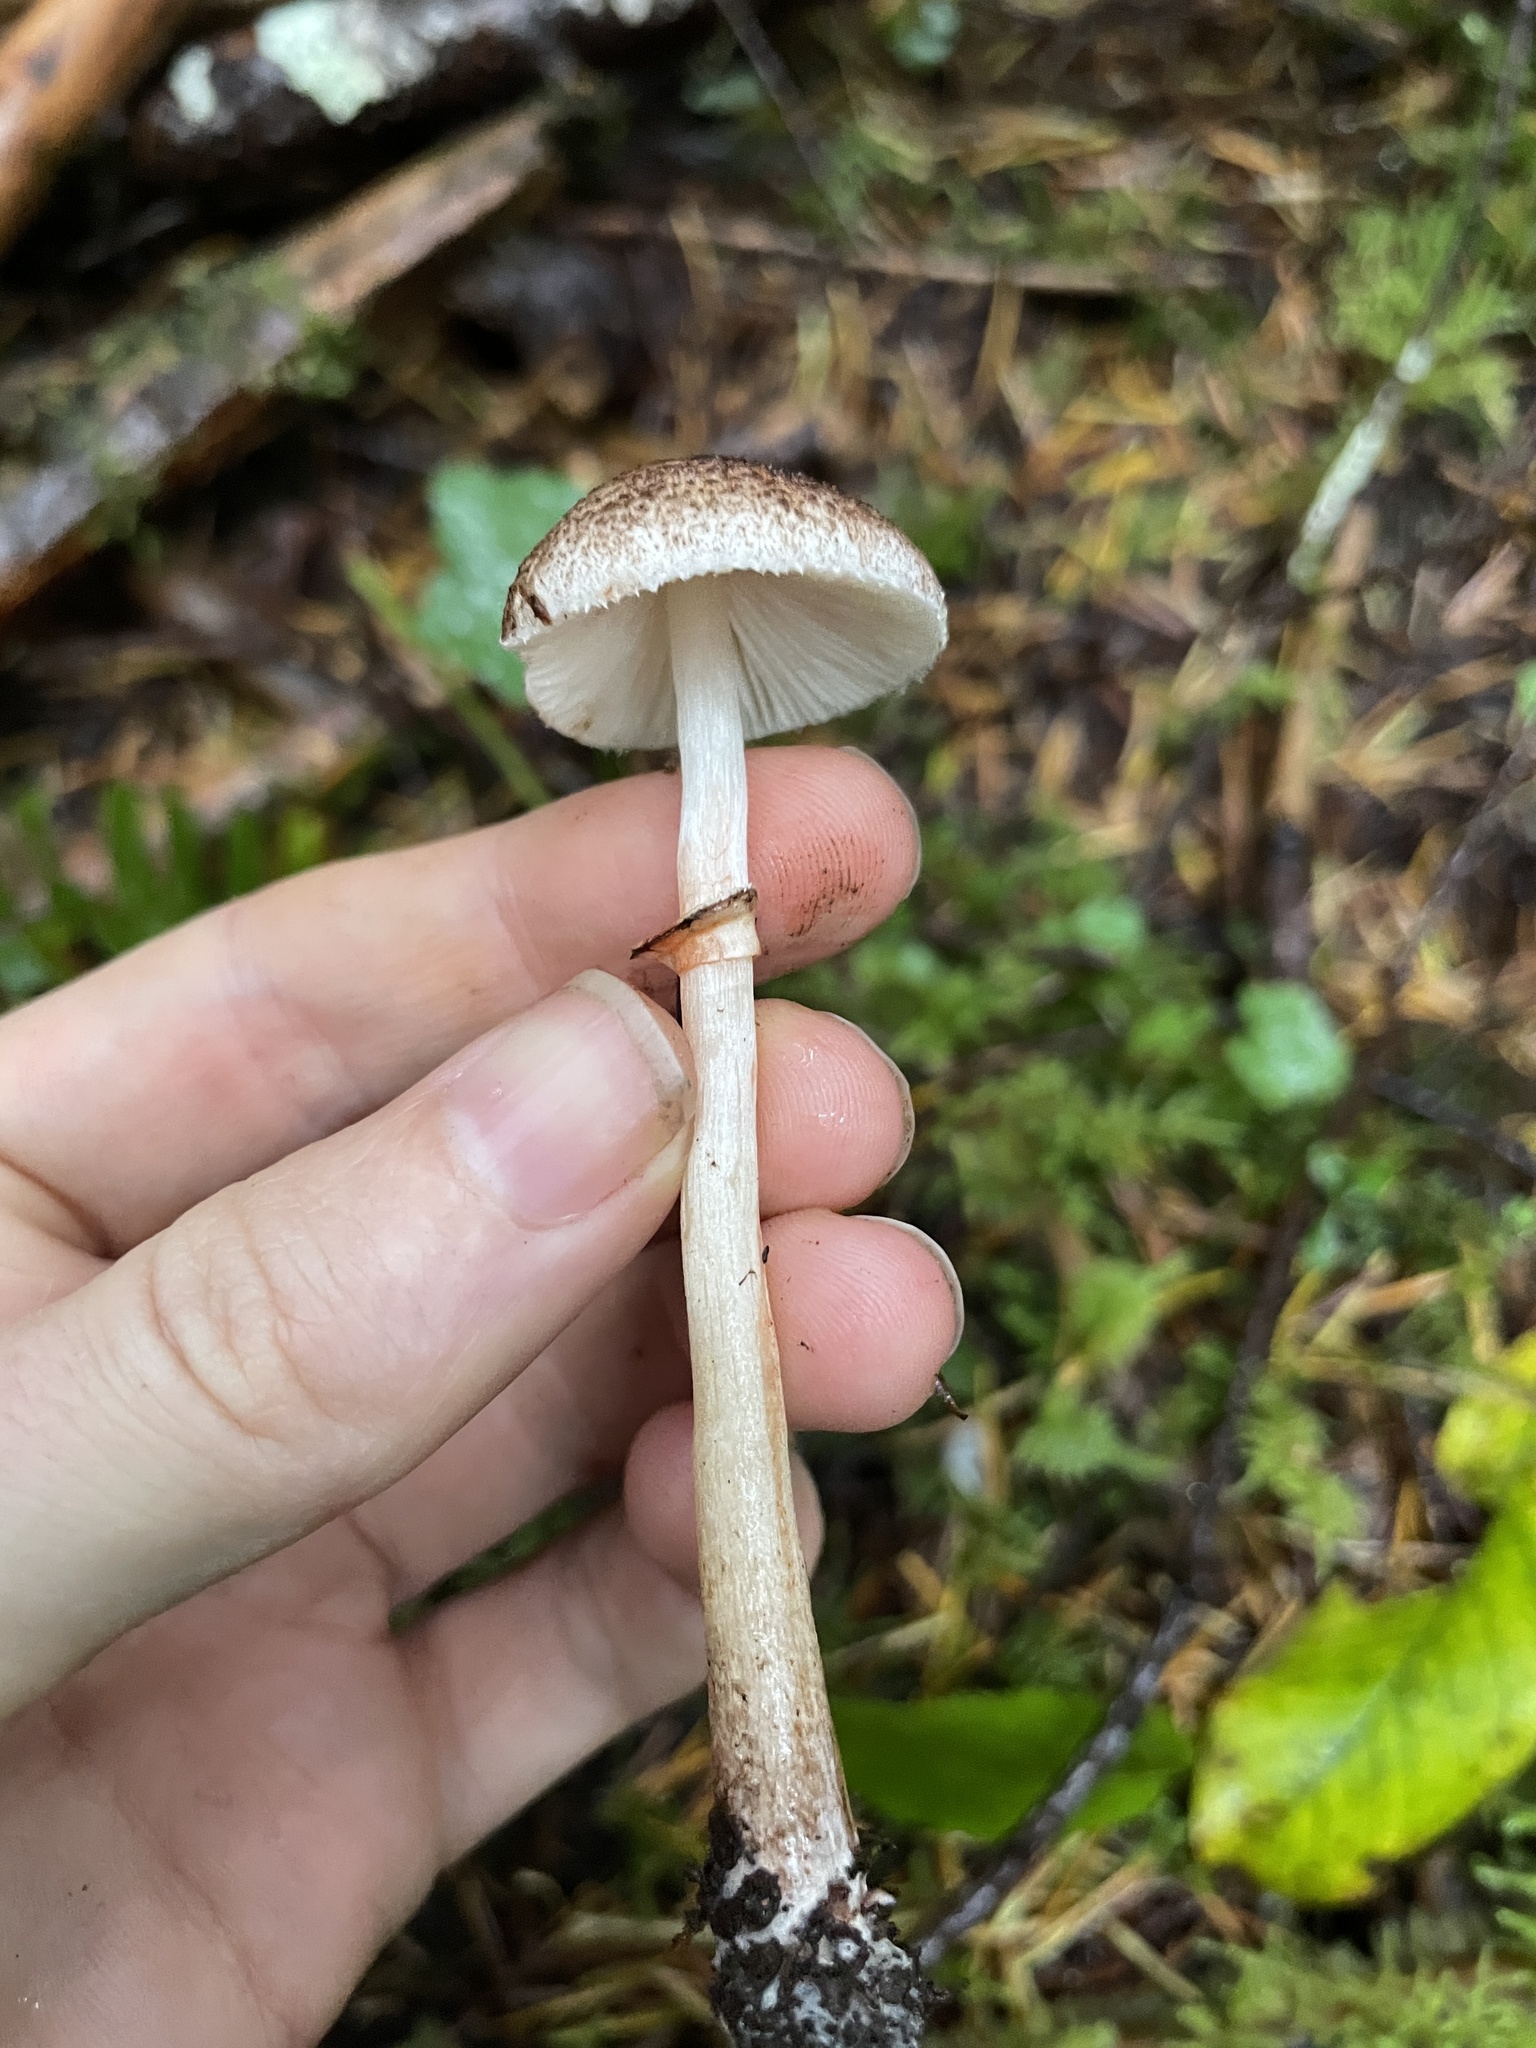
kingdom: Fungi
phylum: Basidiomycota
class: Agaricomycetes
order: Agaricales
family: Agaricaceae
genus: Lepiota
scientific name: Lepiota flammeotincta
